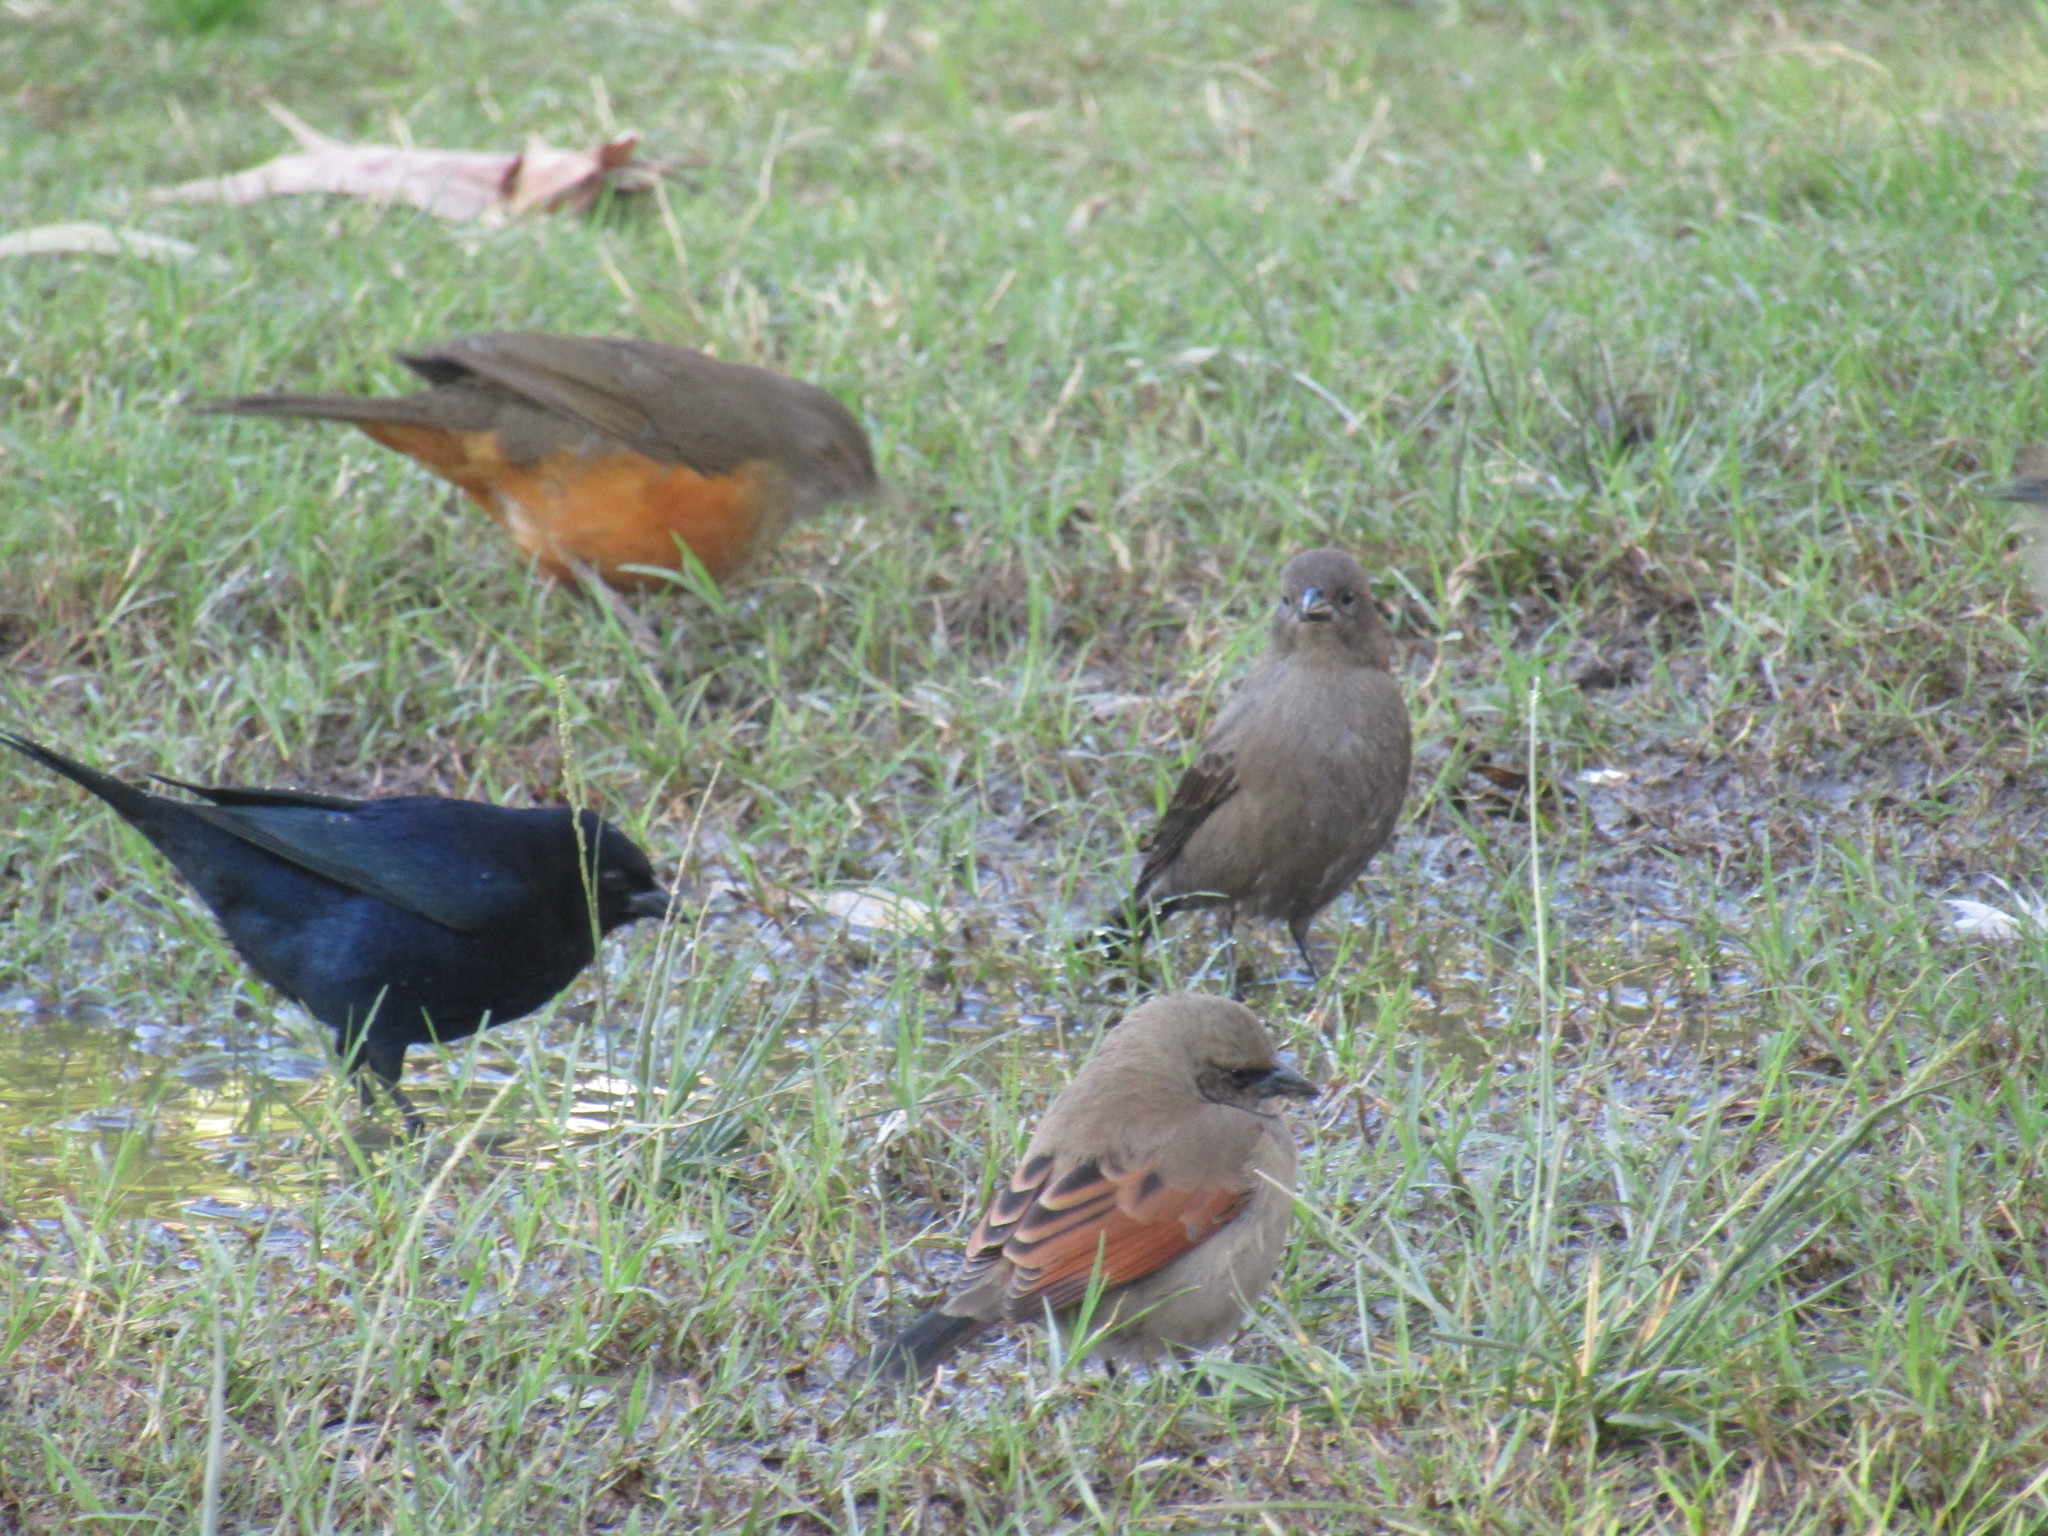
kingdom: Animalia
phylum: Chordata
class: Aves
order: Passeriformes
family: Icteridae
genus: Molothrus
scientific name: Molothrus bonariensis
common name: Shiny cowbird
